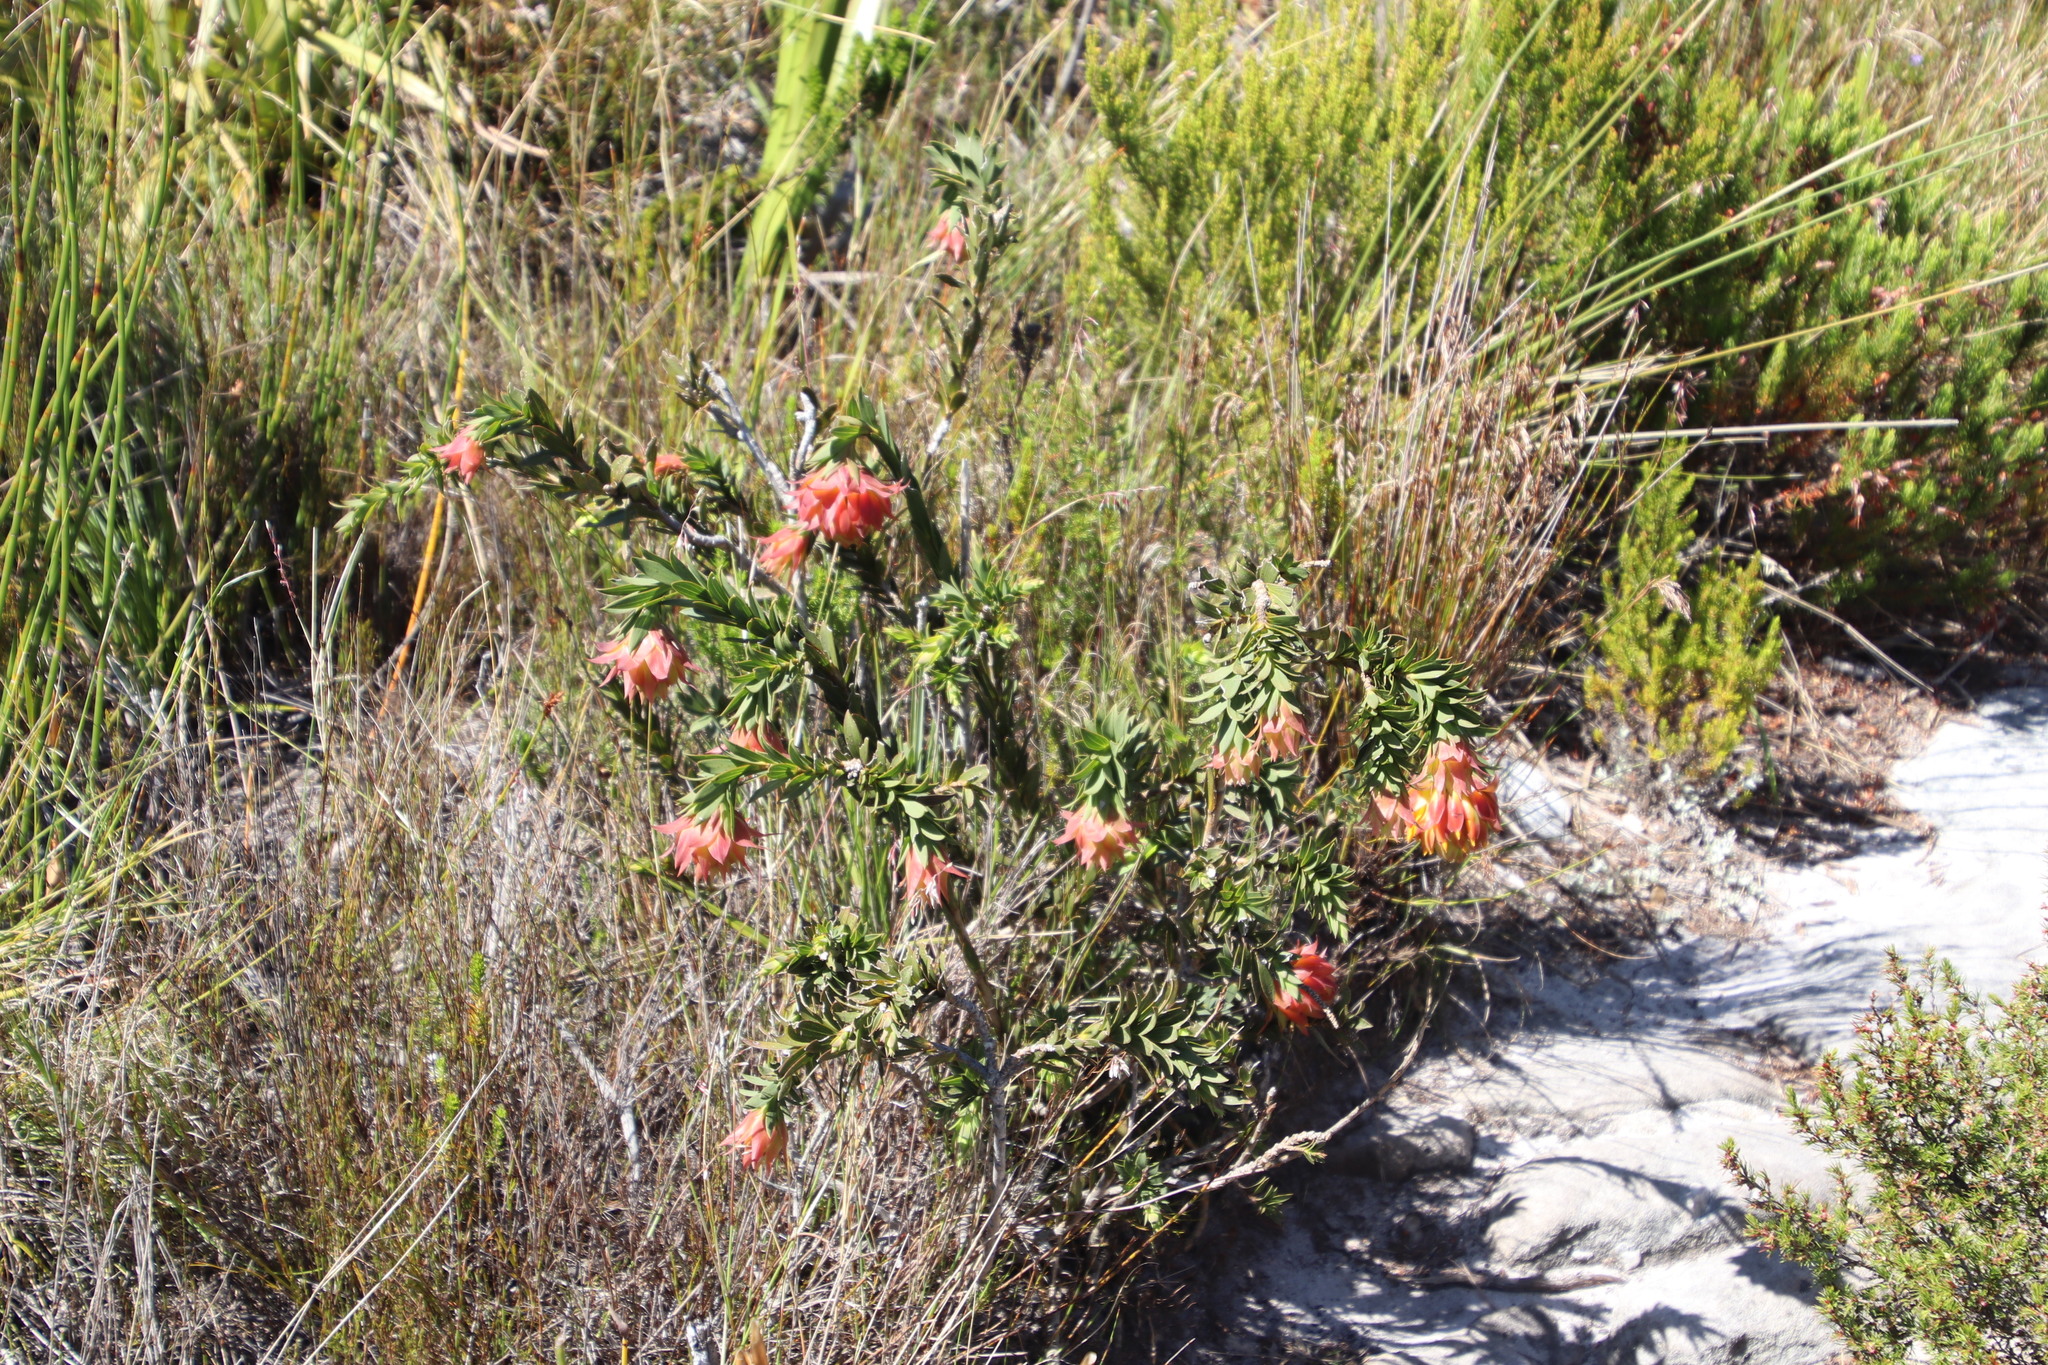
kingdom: Plantae
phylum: Tracheophyta
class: Magnoliopsida
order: Fabales
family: Fabaceae
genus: Liparia
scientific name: Liparia splendens
